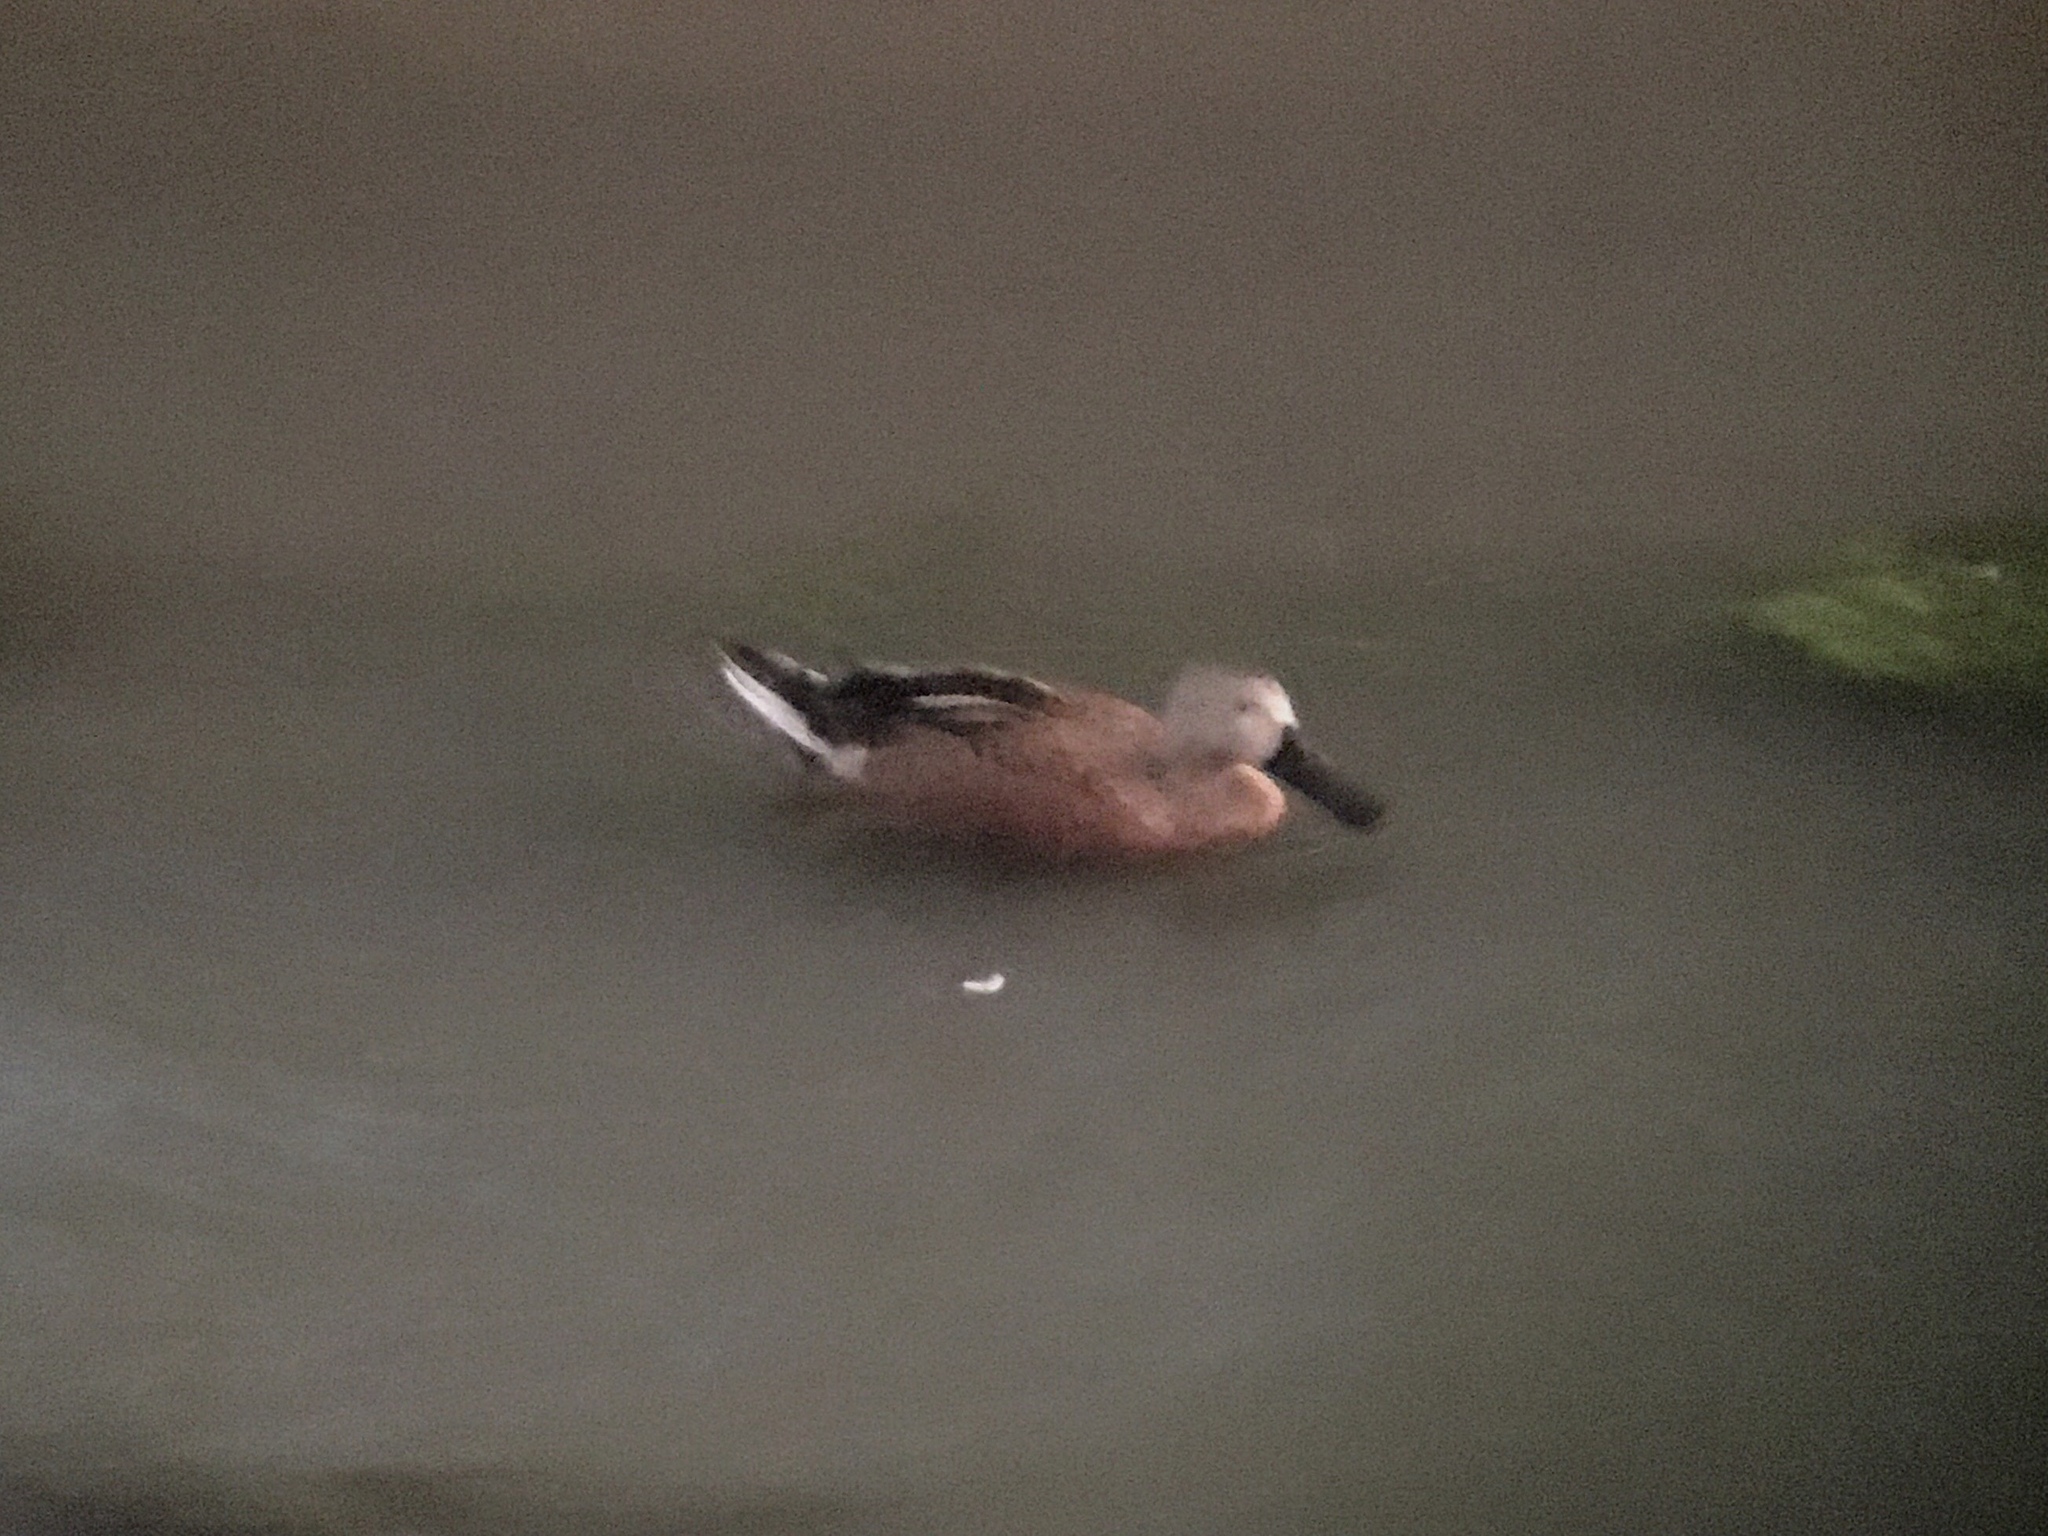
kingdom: Animalia
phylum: Chordata
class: Aves
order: Anseriformes
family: Anatidae
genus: Spatula
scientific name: Spatula platalea
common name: Red shoveler
